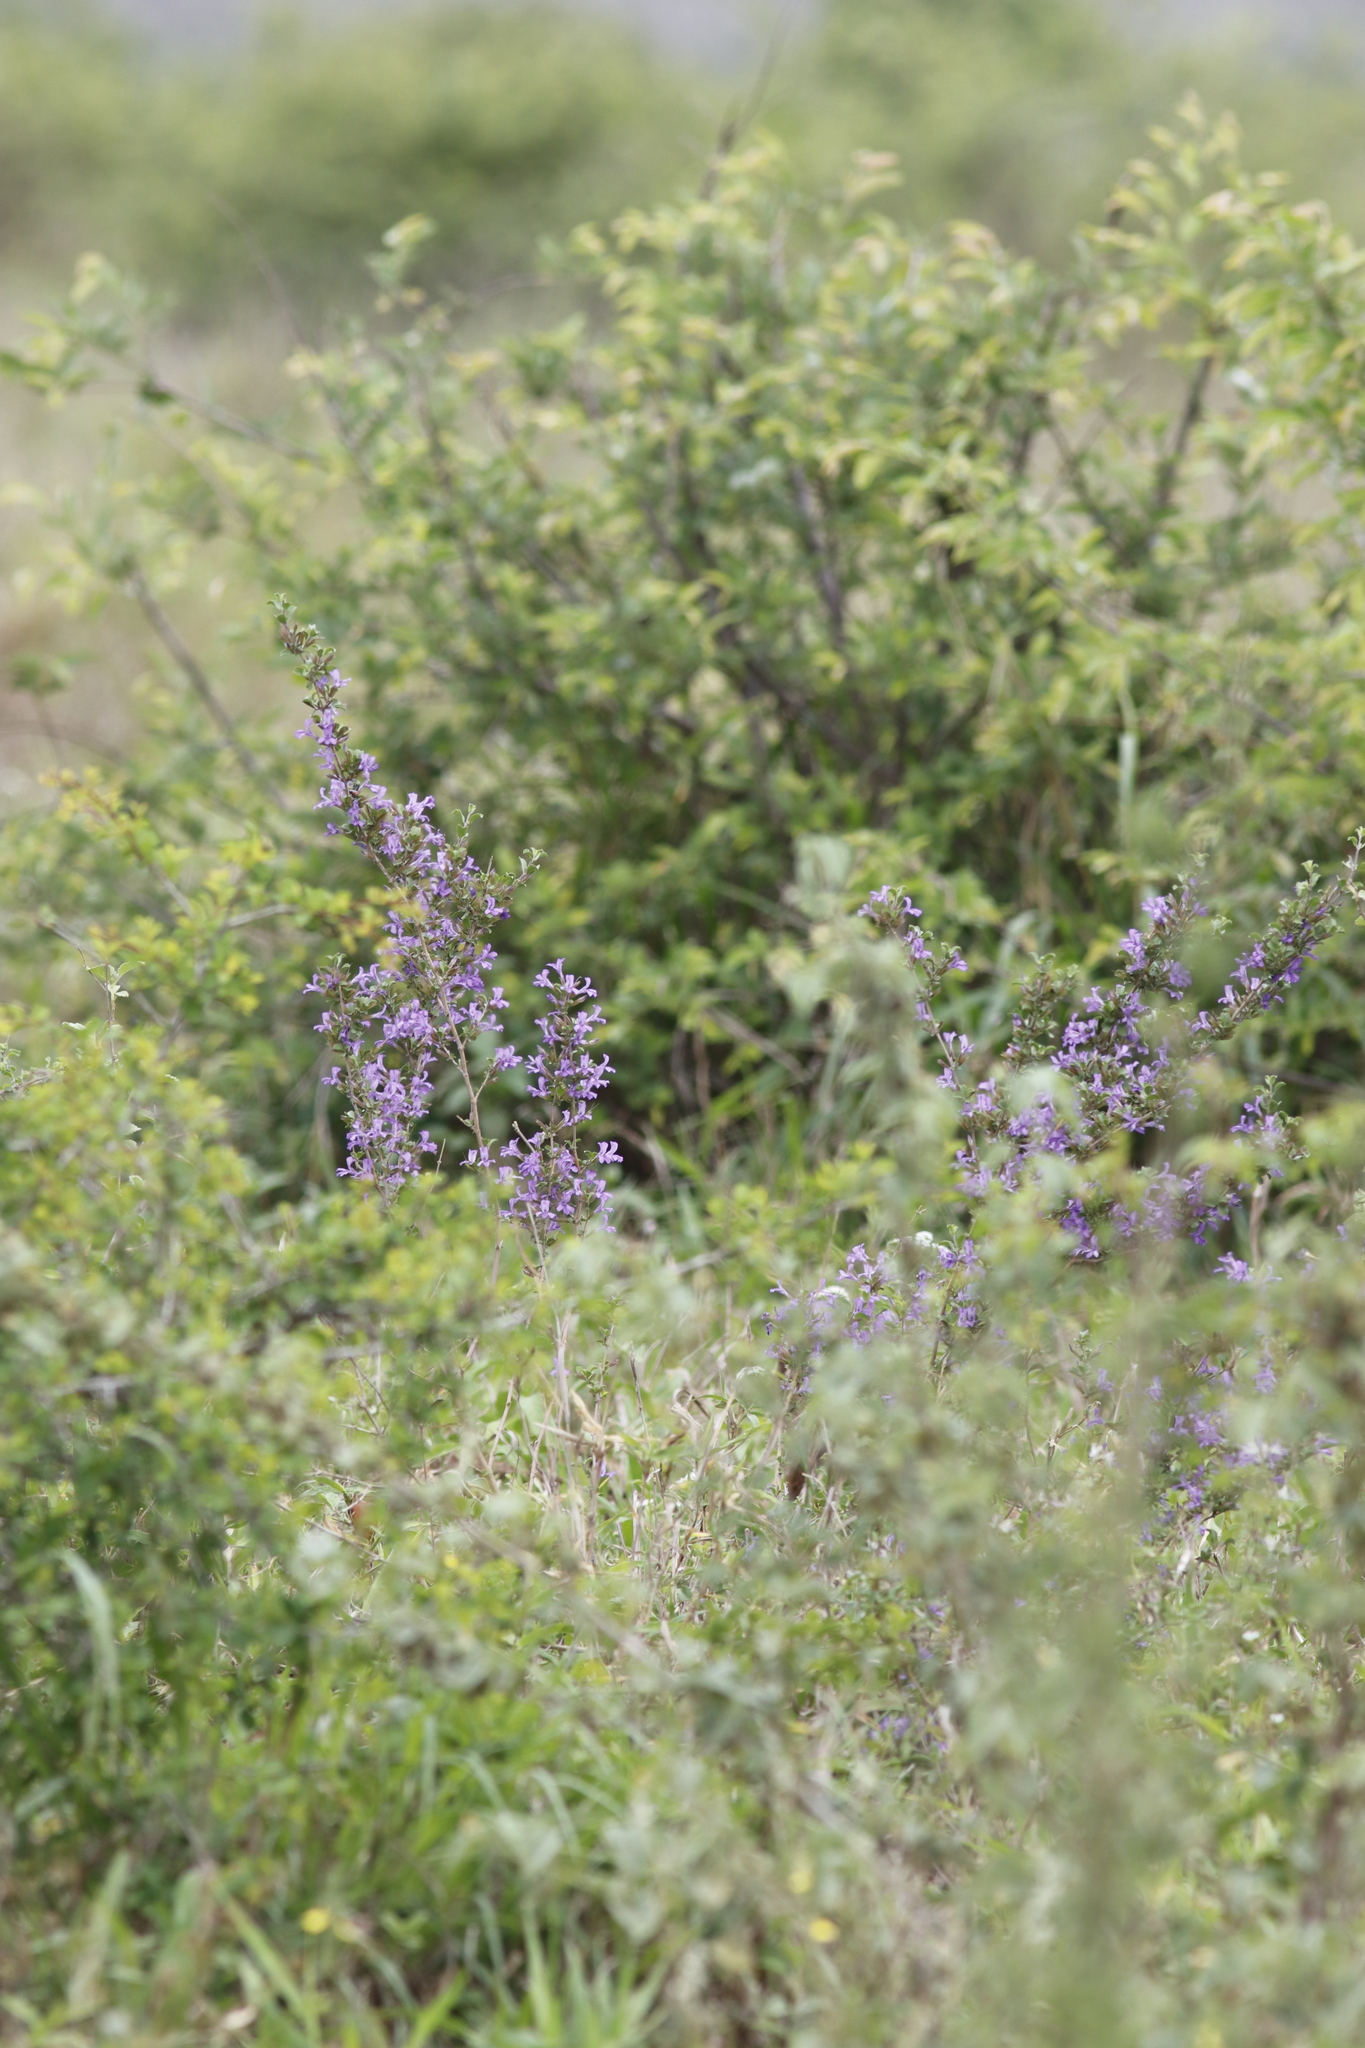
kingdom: Plantae
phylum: Tracheophyta
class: Magnoliopsida
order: Lamiales
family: Acanthaceae
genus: Dyschoriste
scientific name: Dyschoriste hildebrandtii
